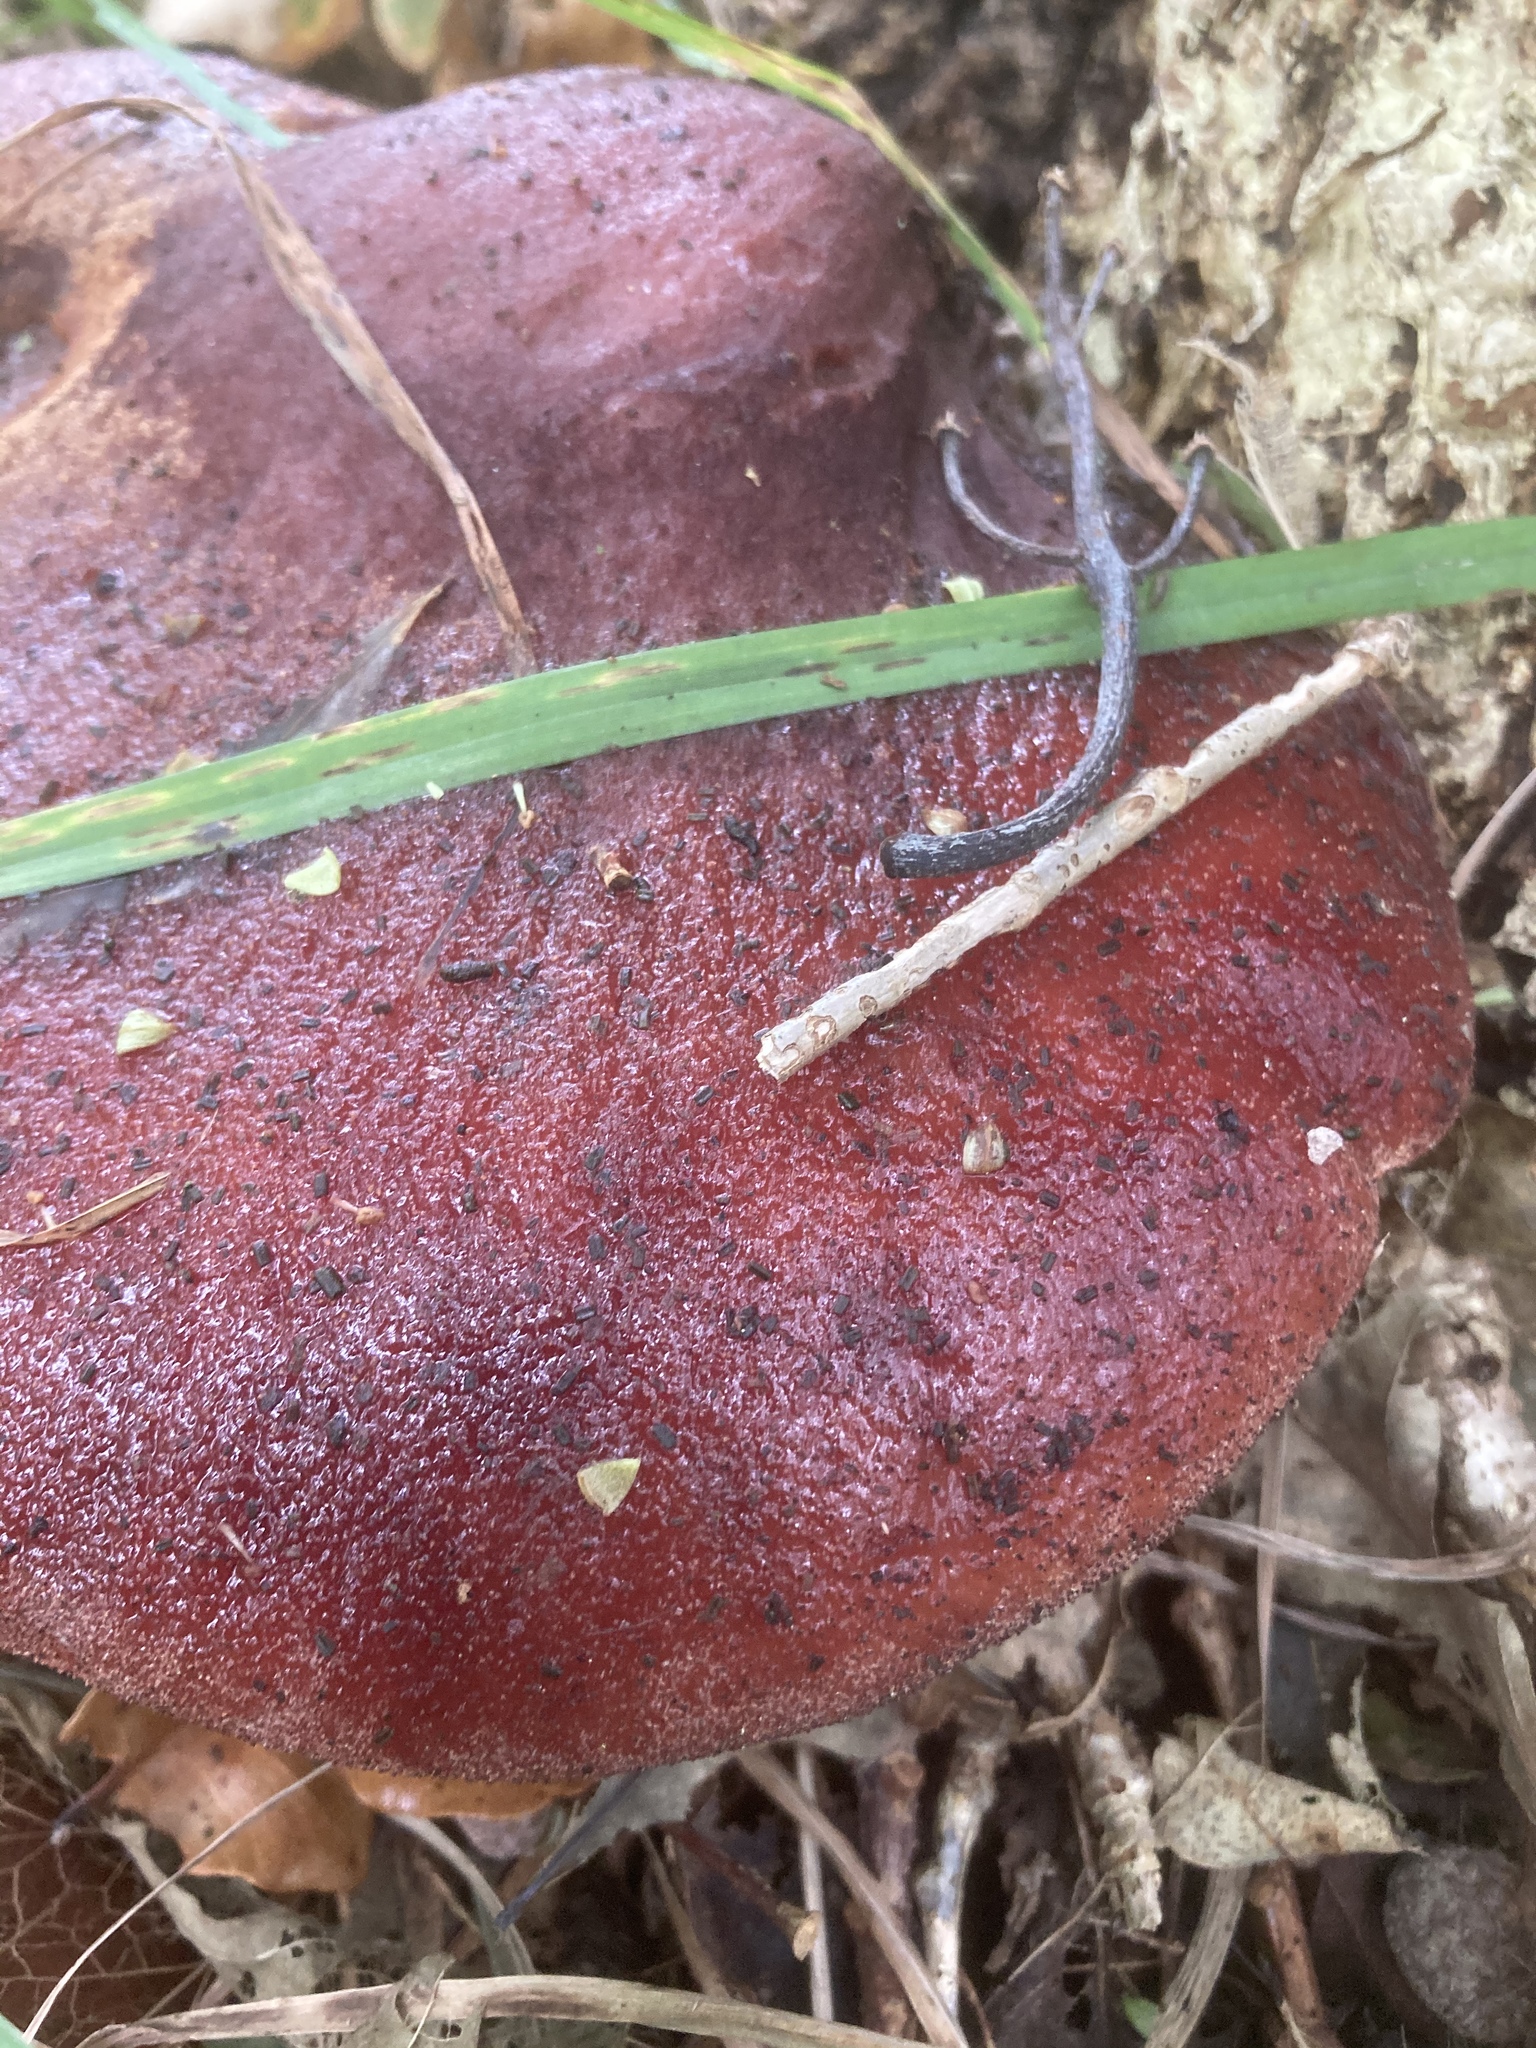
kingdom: Fungi
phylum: Basidiomycota
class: Agaricomycetes
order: Agaricales
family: Fistulinaceae
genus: Fistulina
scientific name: Fistulina hepatica
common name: Beef-steak fungus
